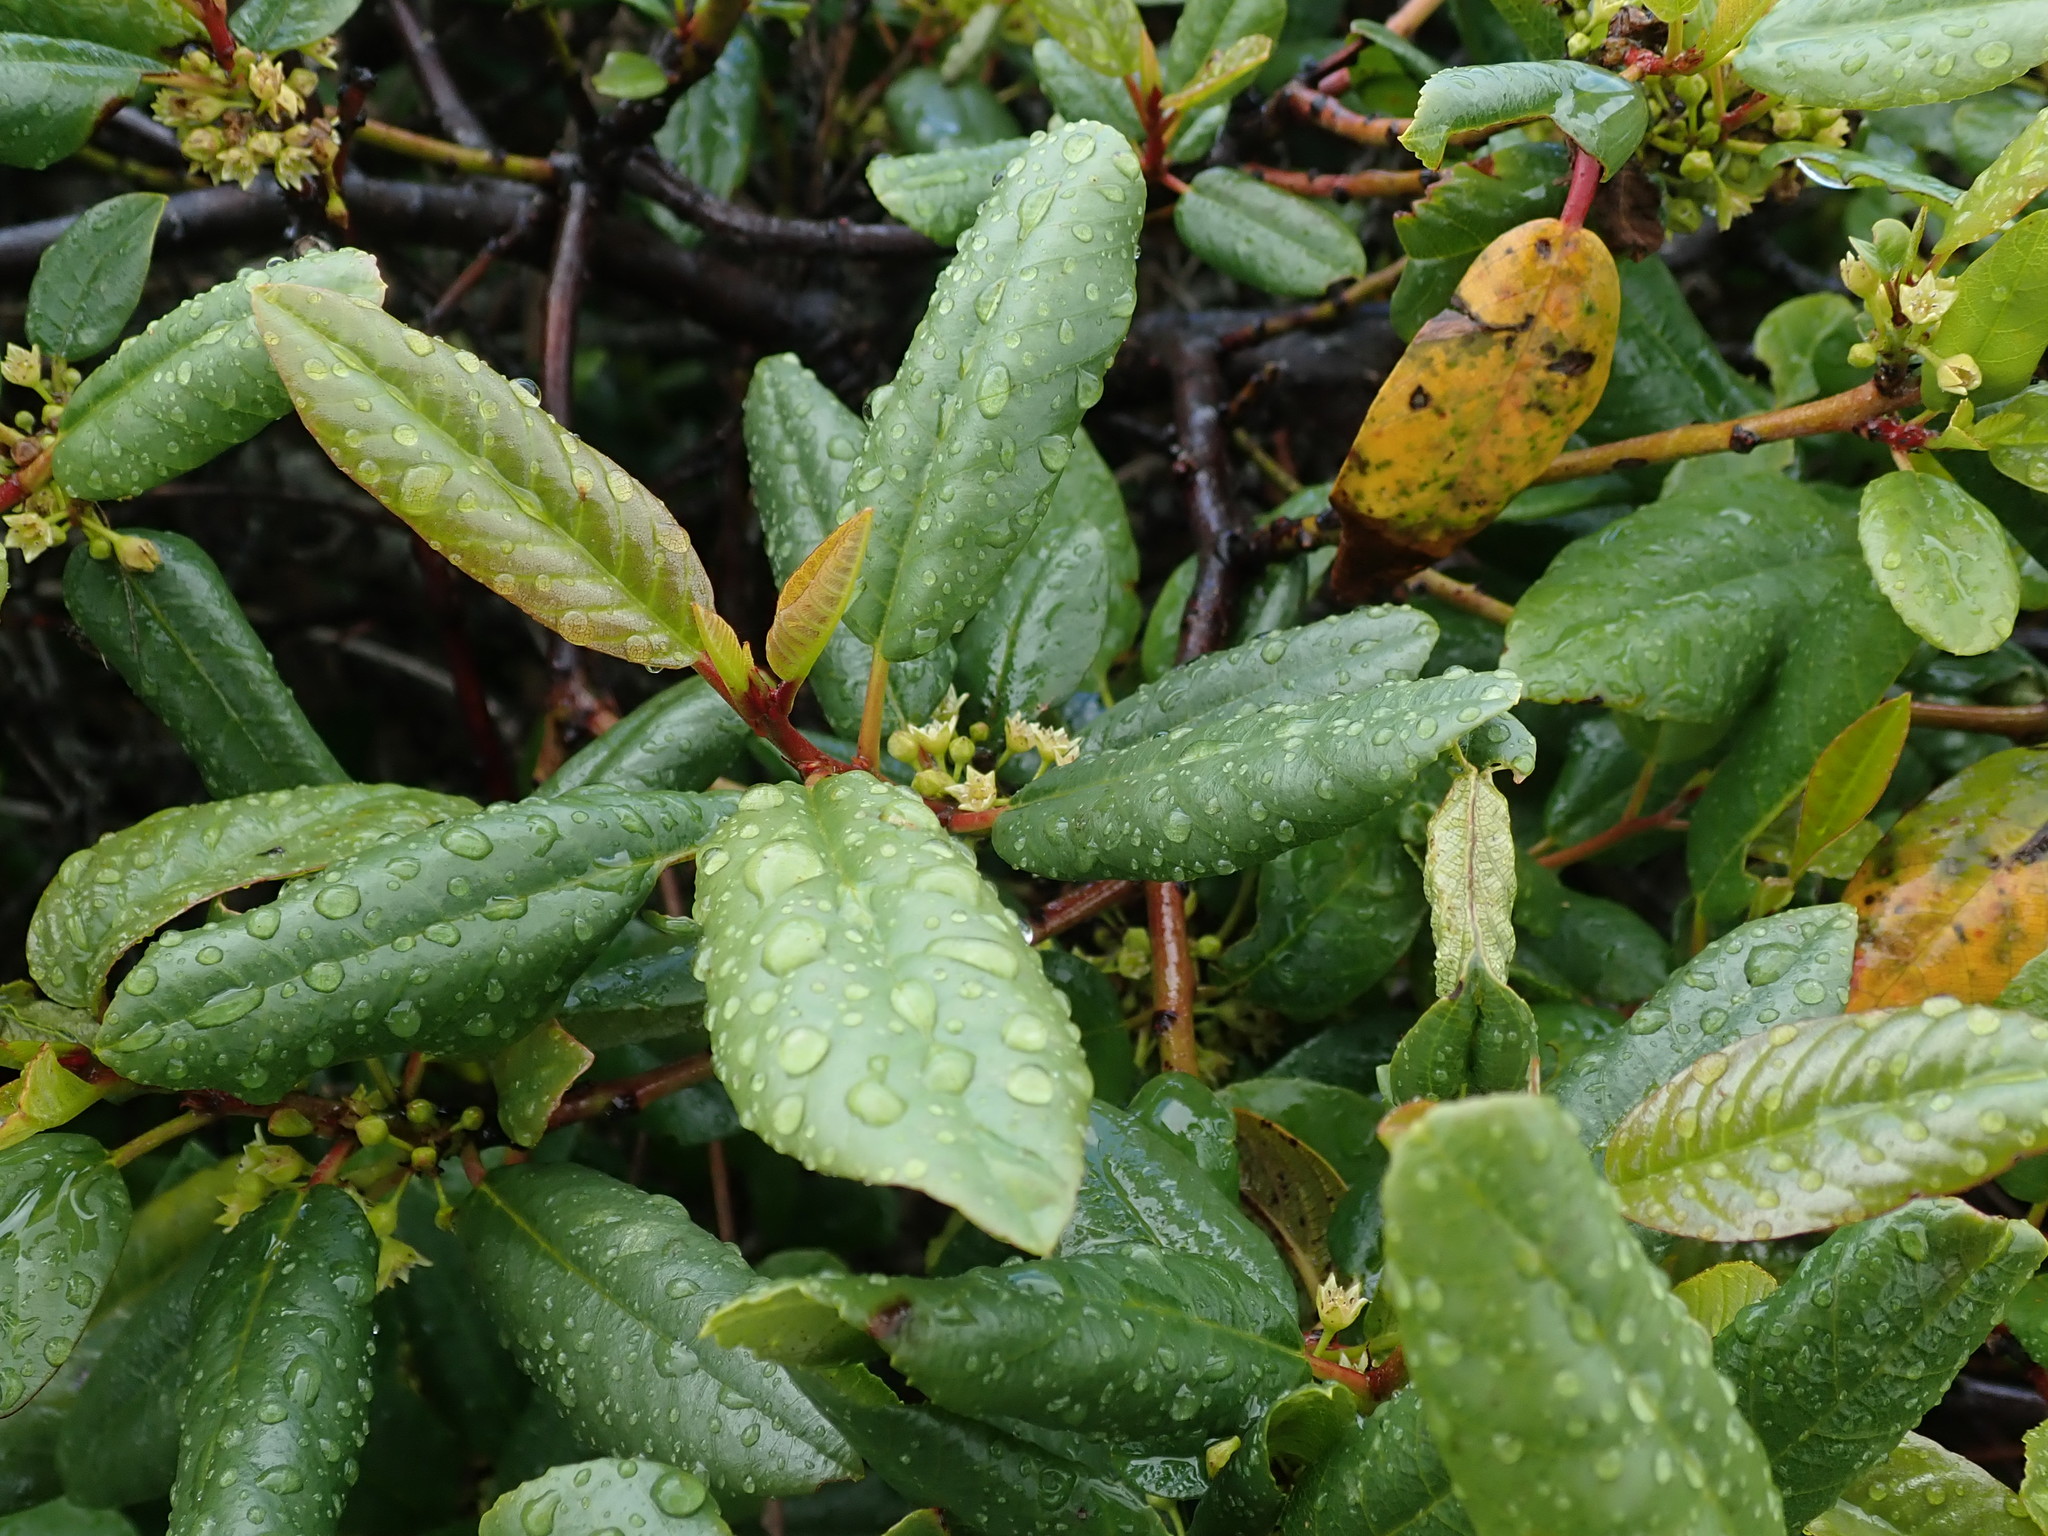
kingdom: Plantae
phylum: Tracheophyta
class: Magnoliopsida
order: Rosales
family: Rhamnaceae
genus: Frangula
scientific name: Frangula californica
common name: California buckthorn
